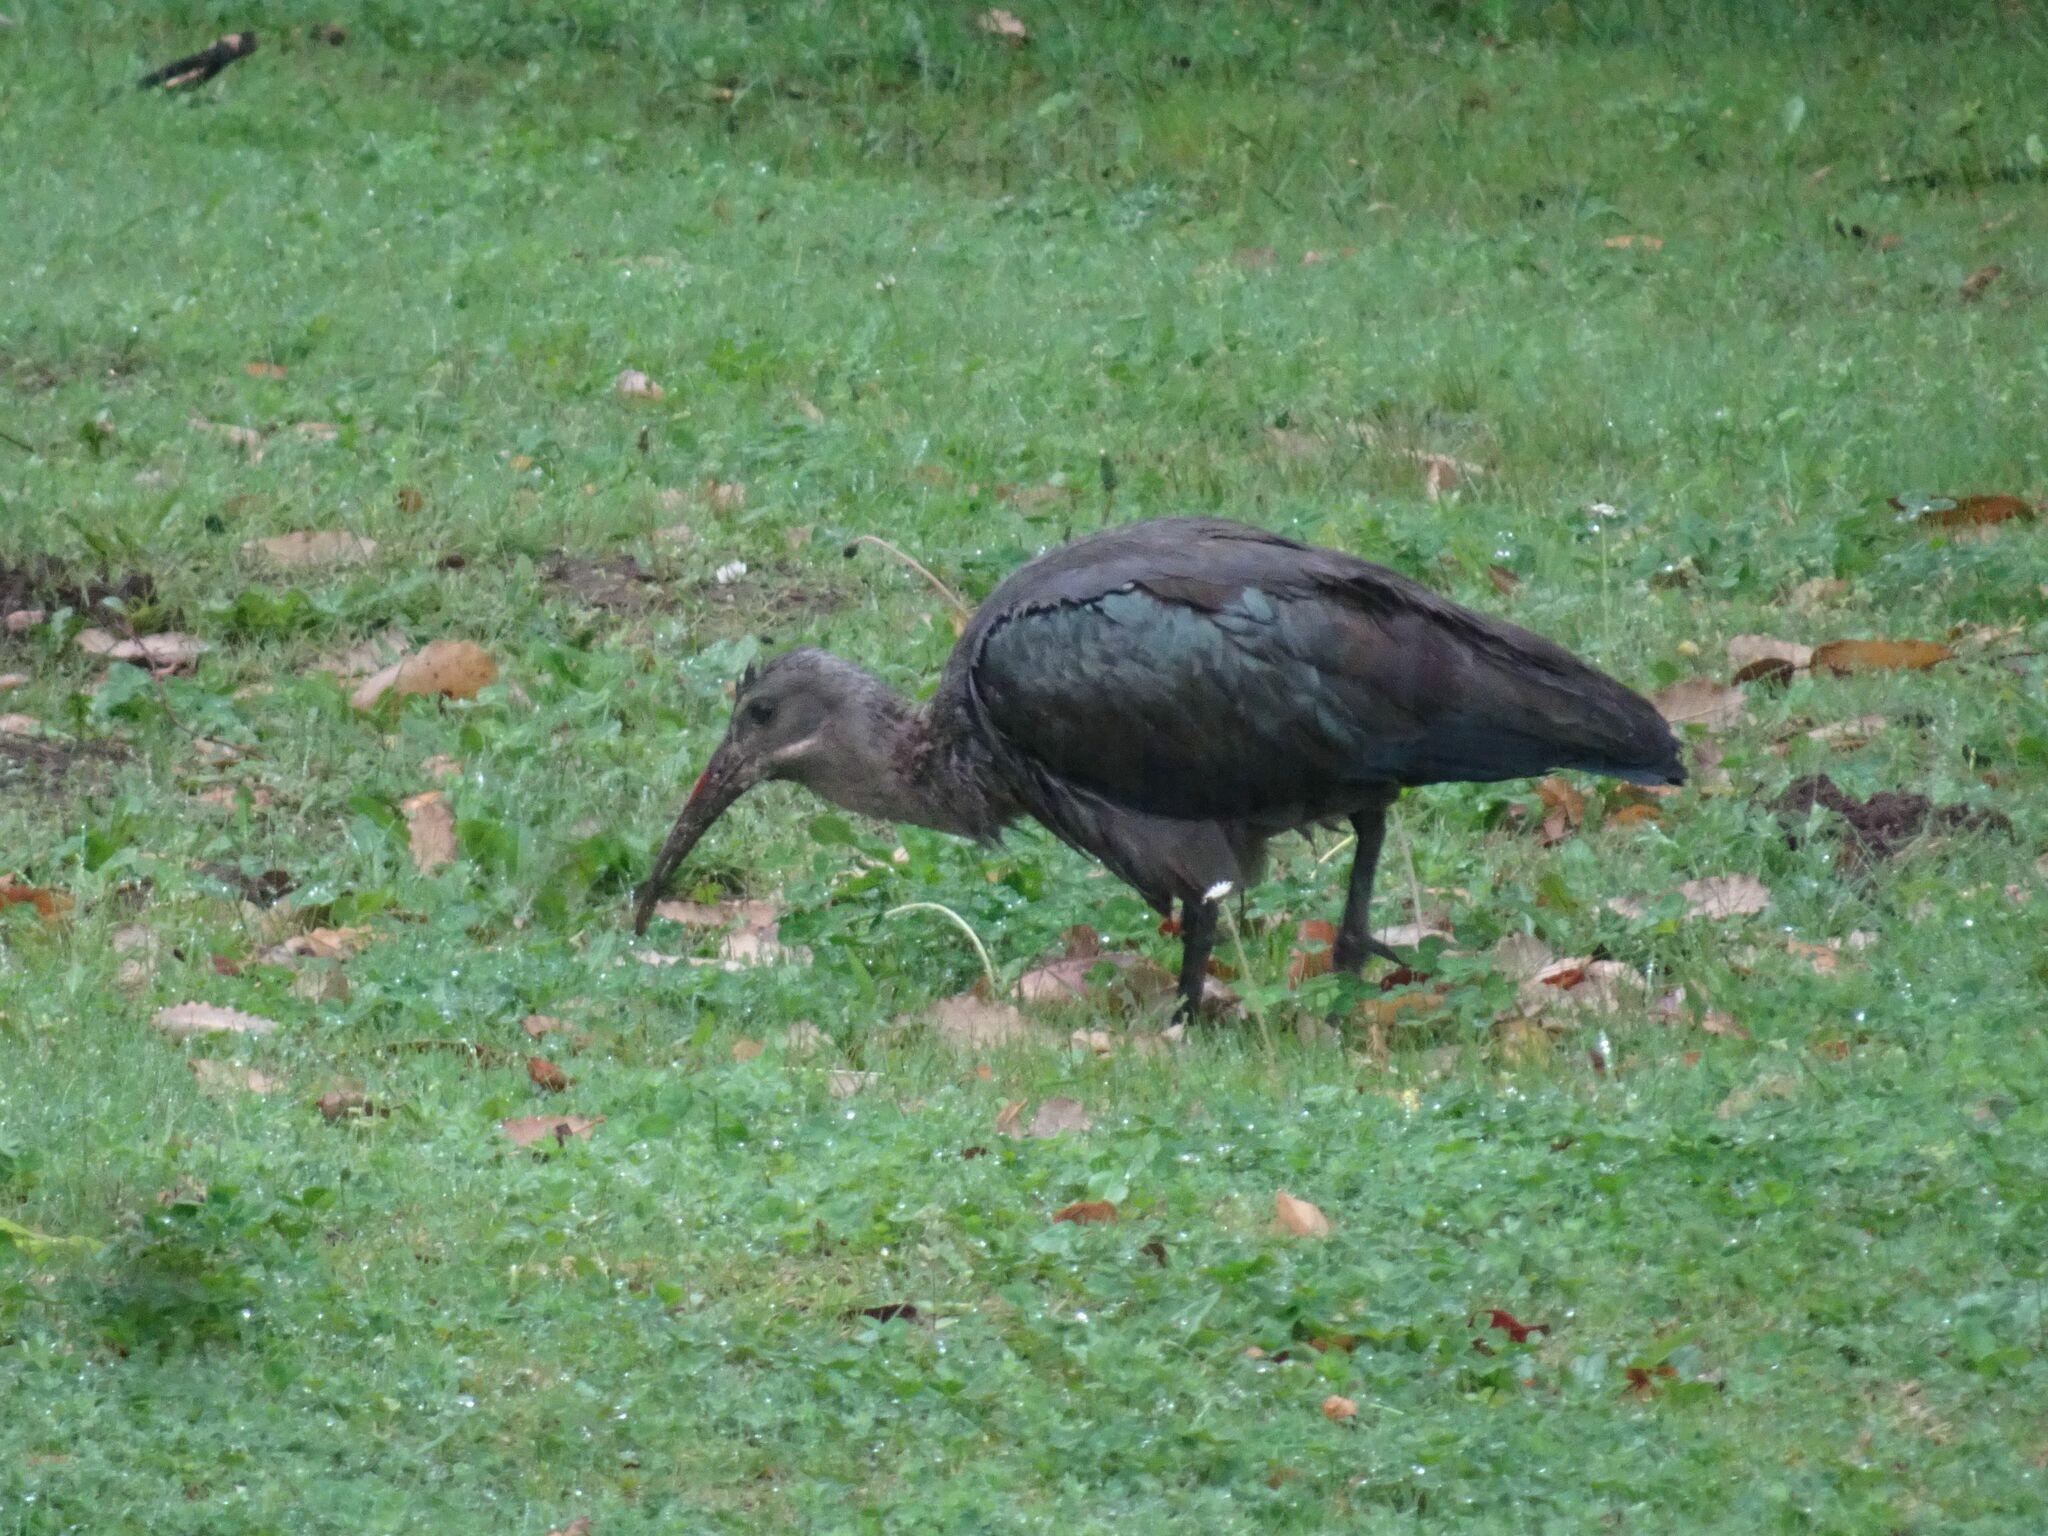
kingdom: Animalia
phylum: Chordata
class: Aves
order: Pelecaniformes
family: Threskiornithidae
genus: Bostrychia
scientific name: Bostrychia hagedash
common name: Hadada ibis
